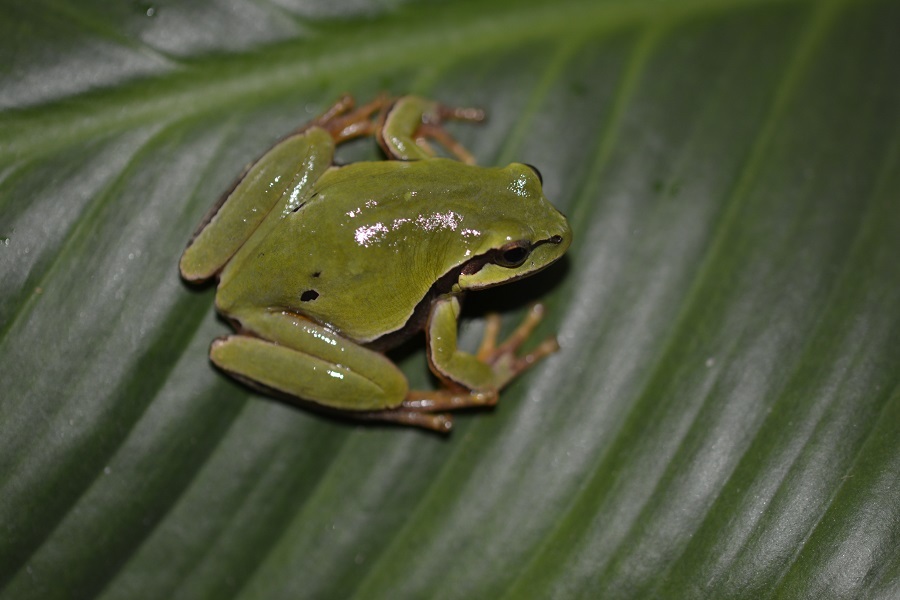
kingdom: Animalia
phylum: Chordata
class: Amphibia
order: Anura
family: Hylidae
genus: Dryophytes
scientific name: Dryophytes walkeri
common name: Walker's treefrog
